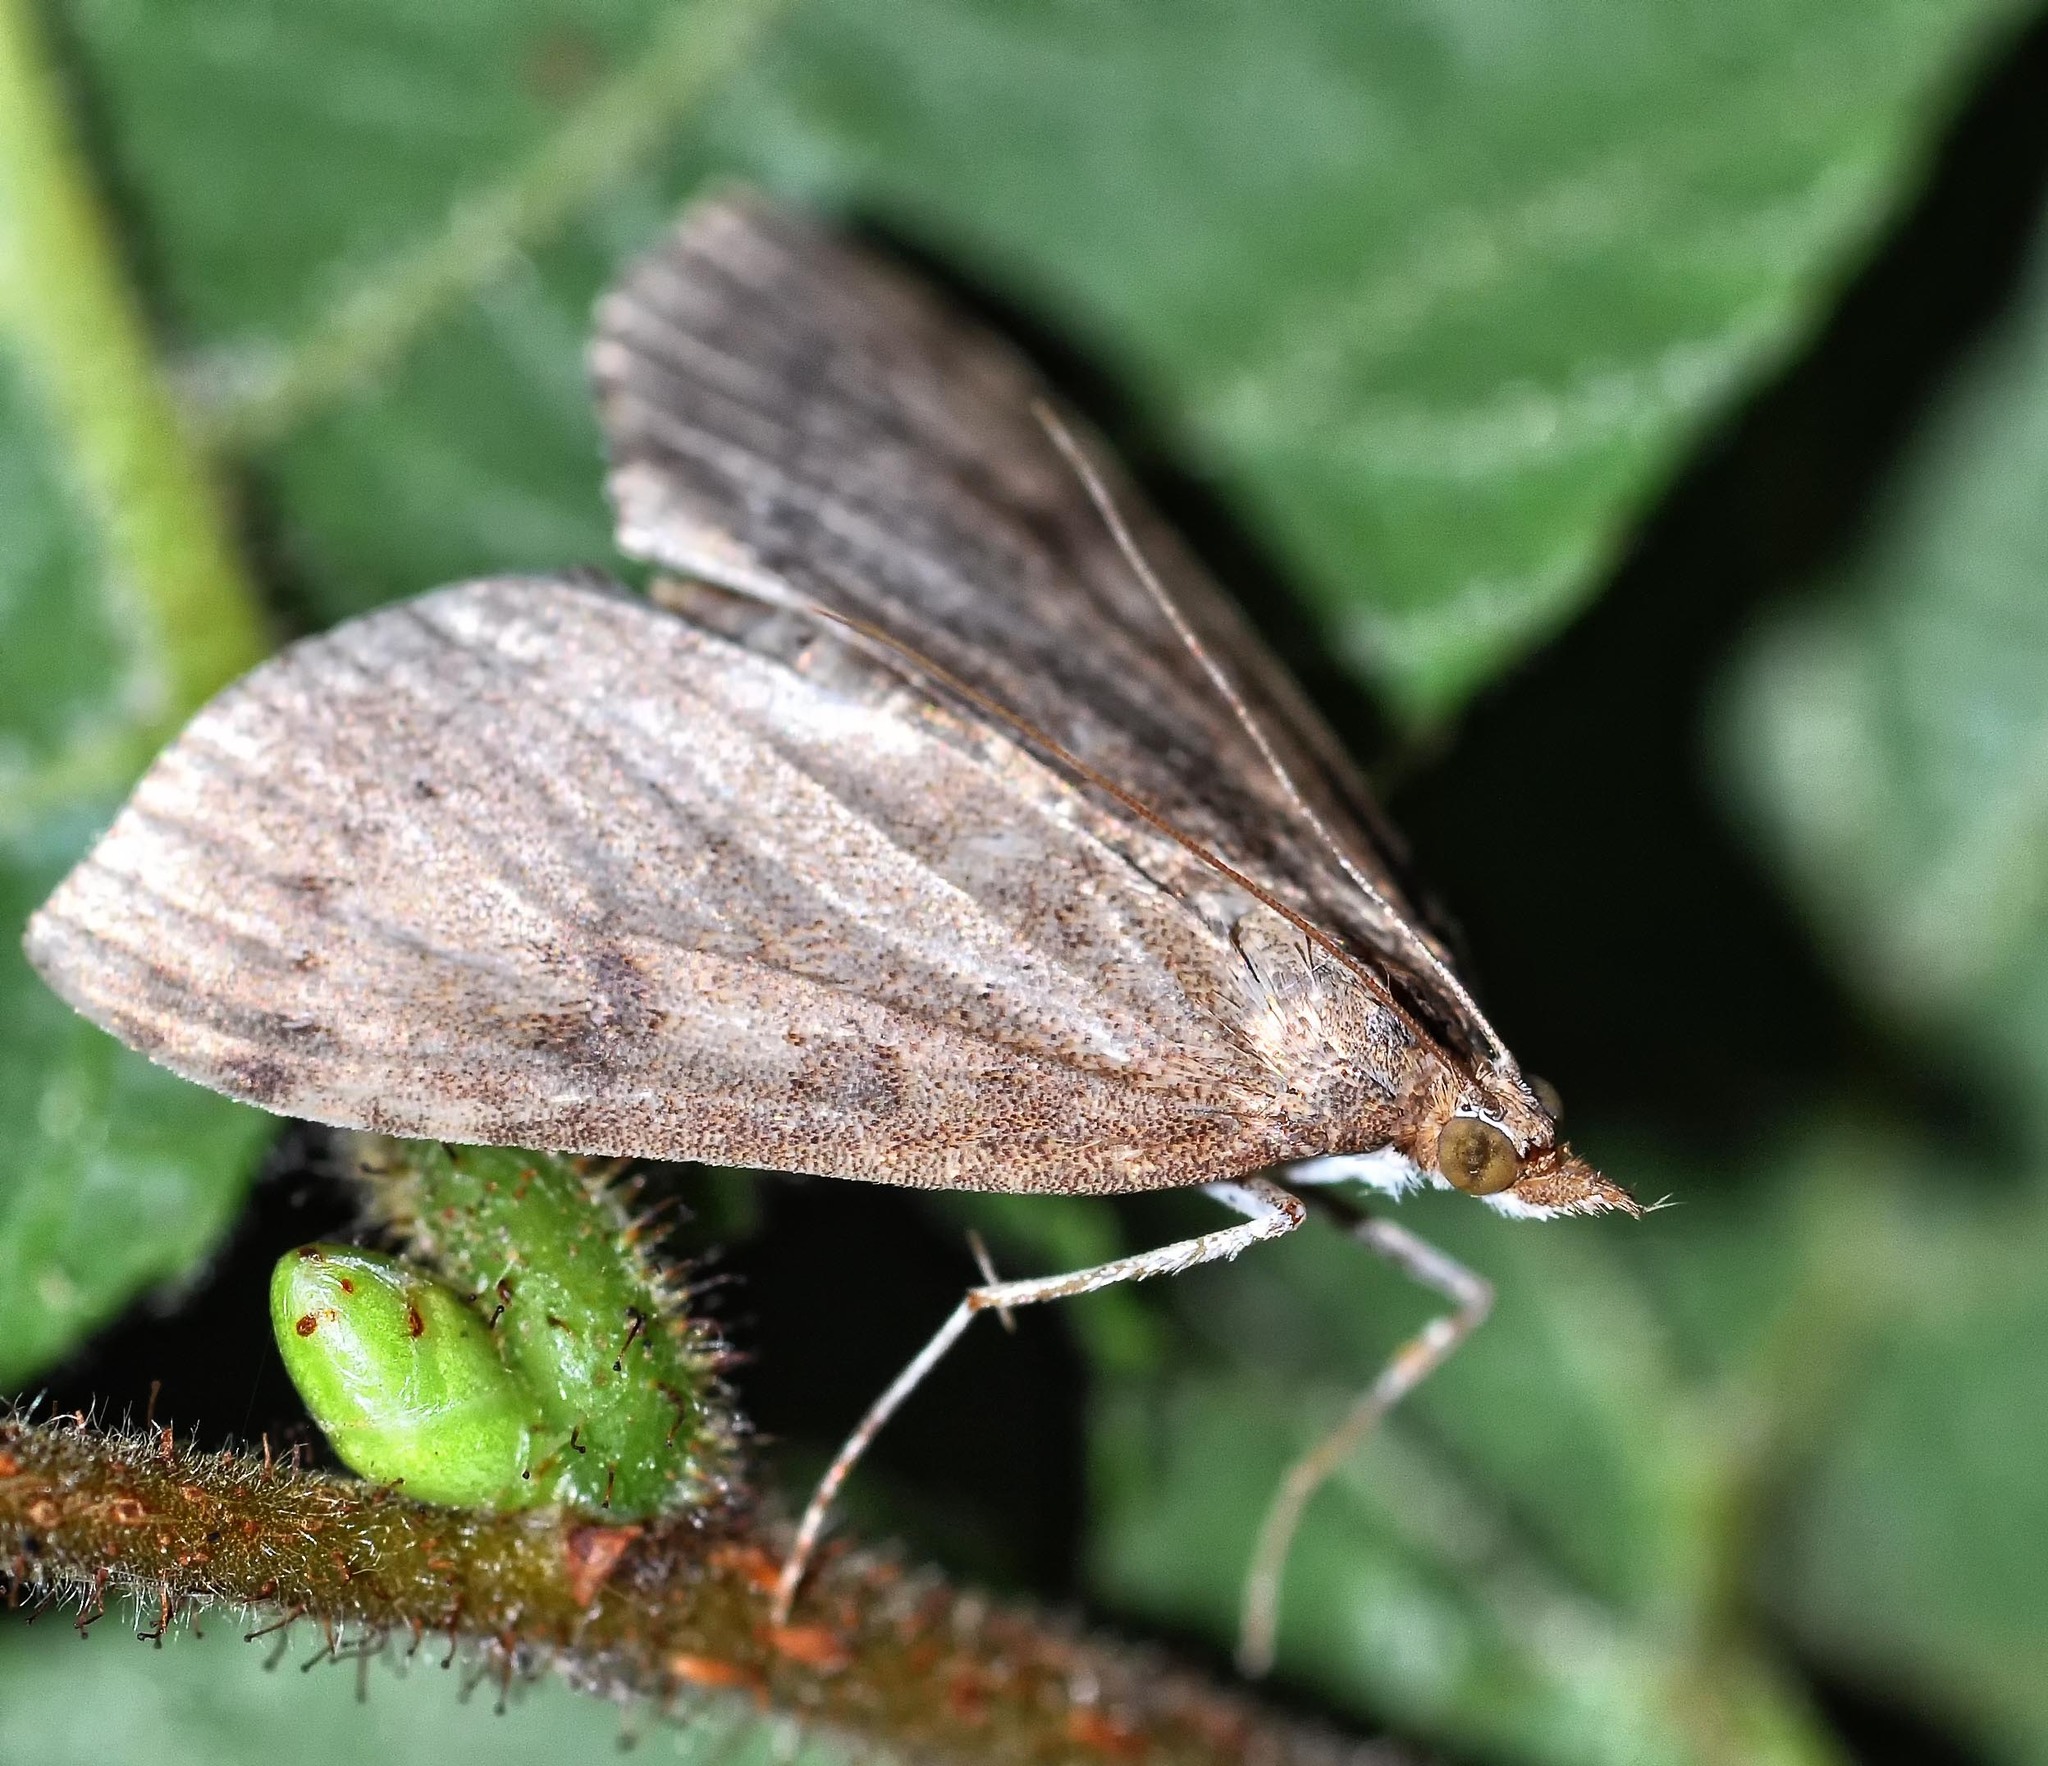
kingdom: Animalia
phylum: Arthropoda
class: Insecta
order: Lepidoptera
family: Crambidae
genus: Udea
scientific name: Udea prunalis
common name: Dusky pearl
